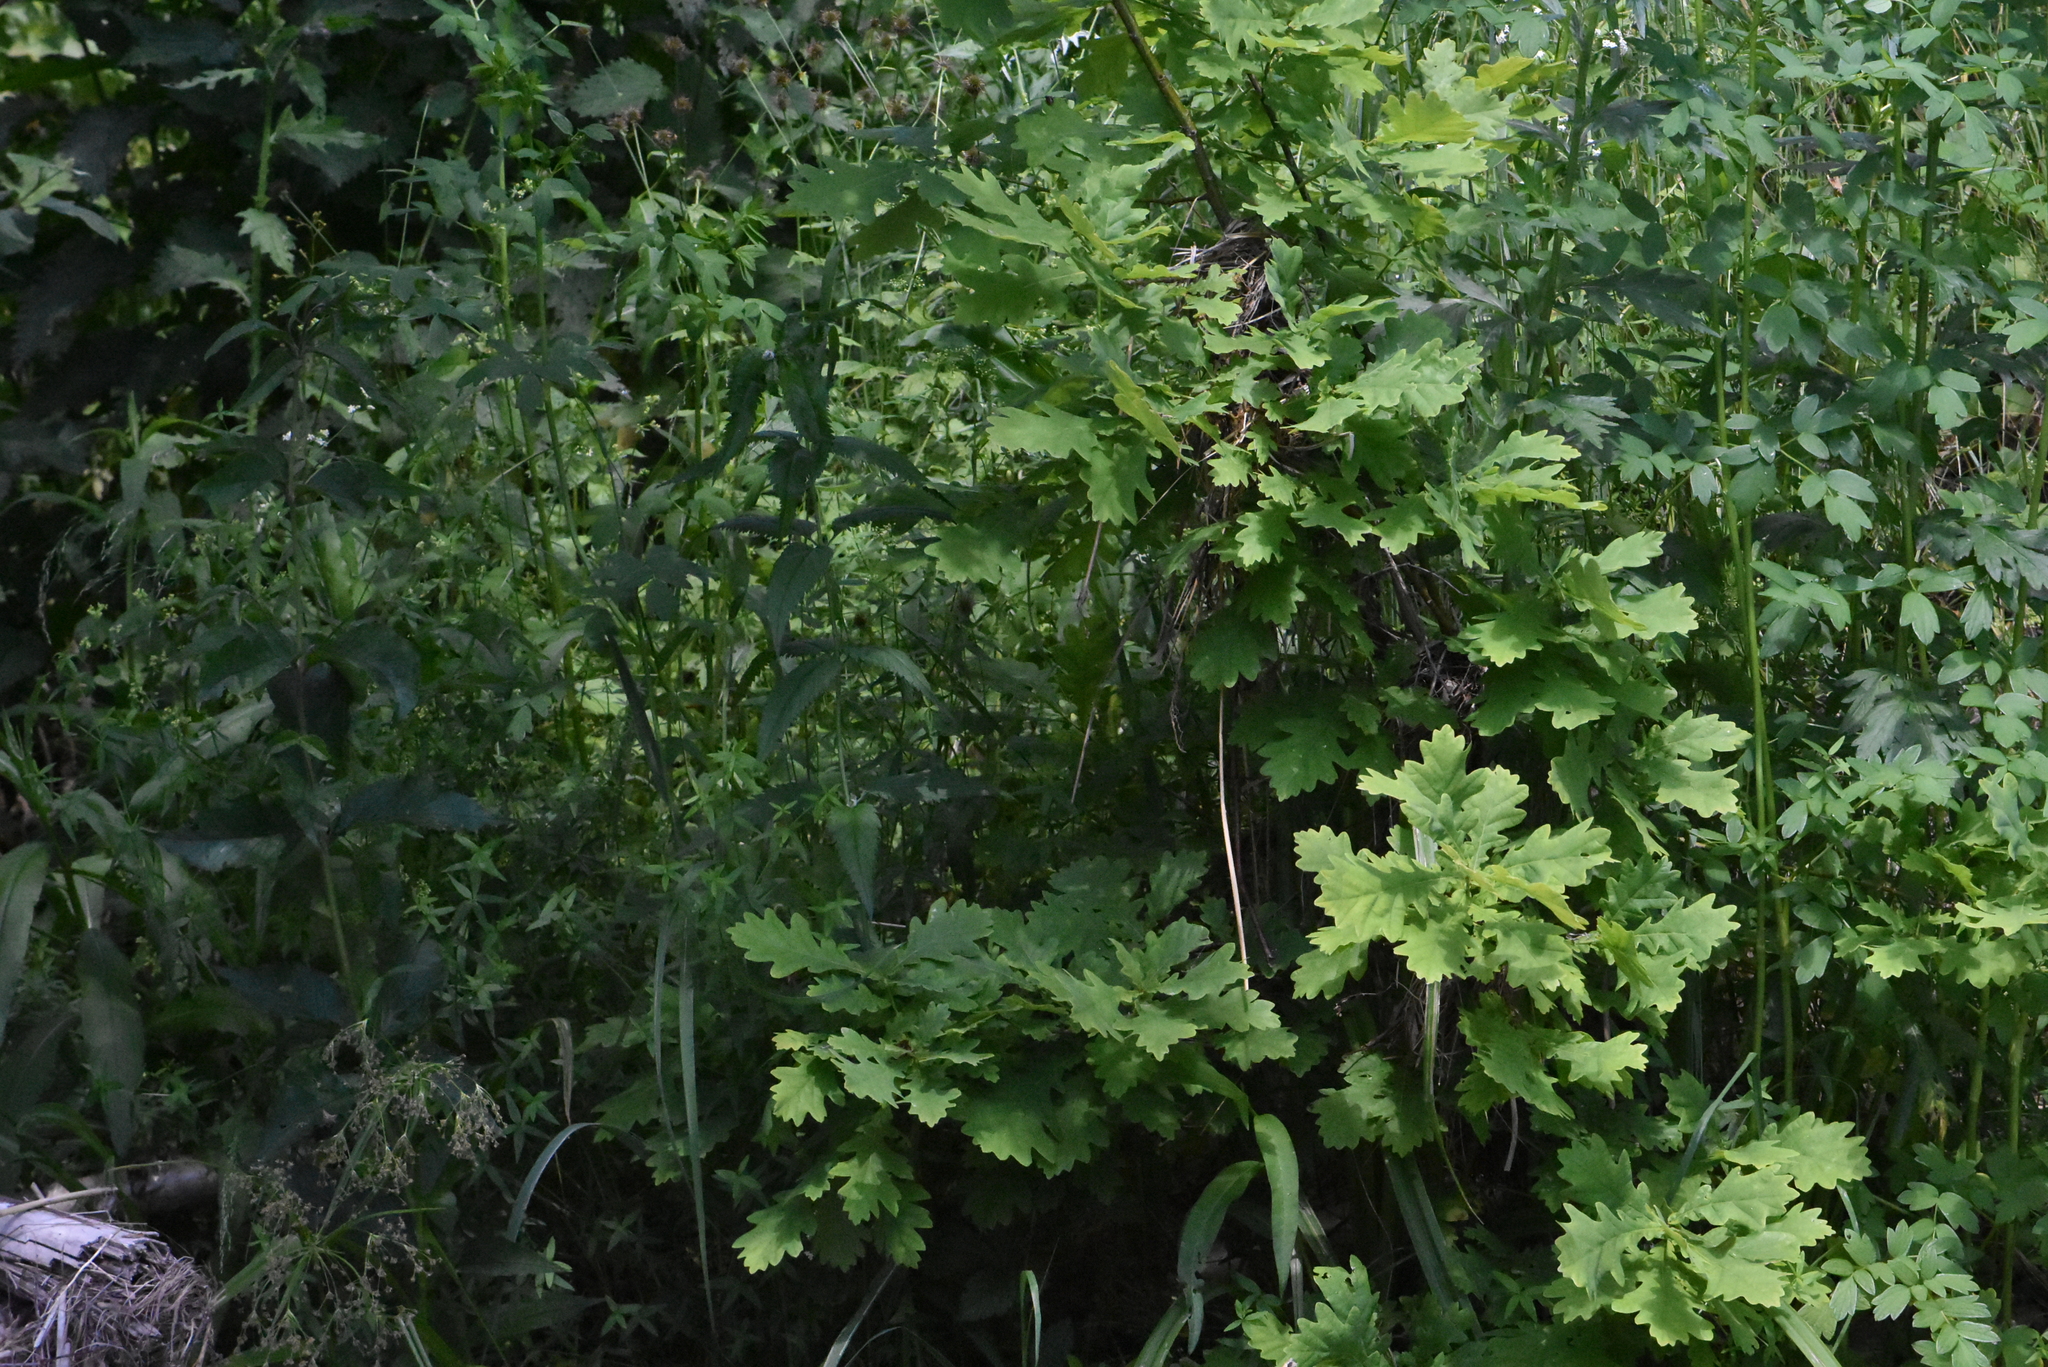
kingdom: Plantae
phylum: Tracheophyta
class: Magnoliopsida
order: Fagales
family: Fagaceae
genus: Quercus
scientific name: Quercus robur
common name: Pedunculate oak
